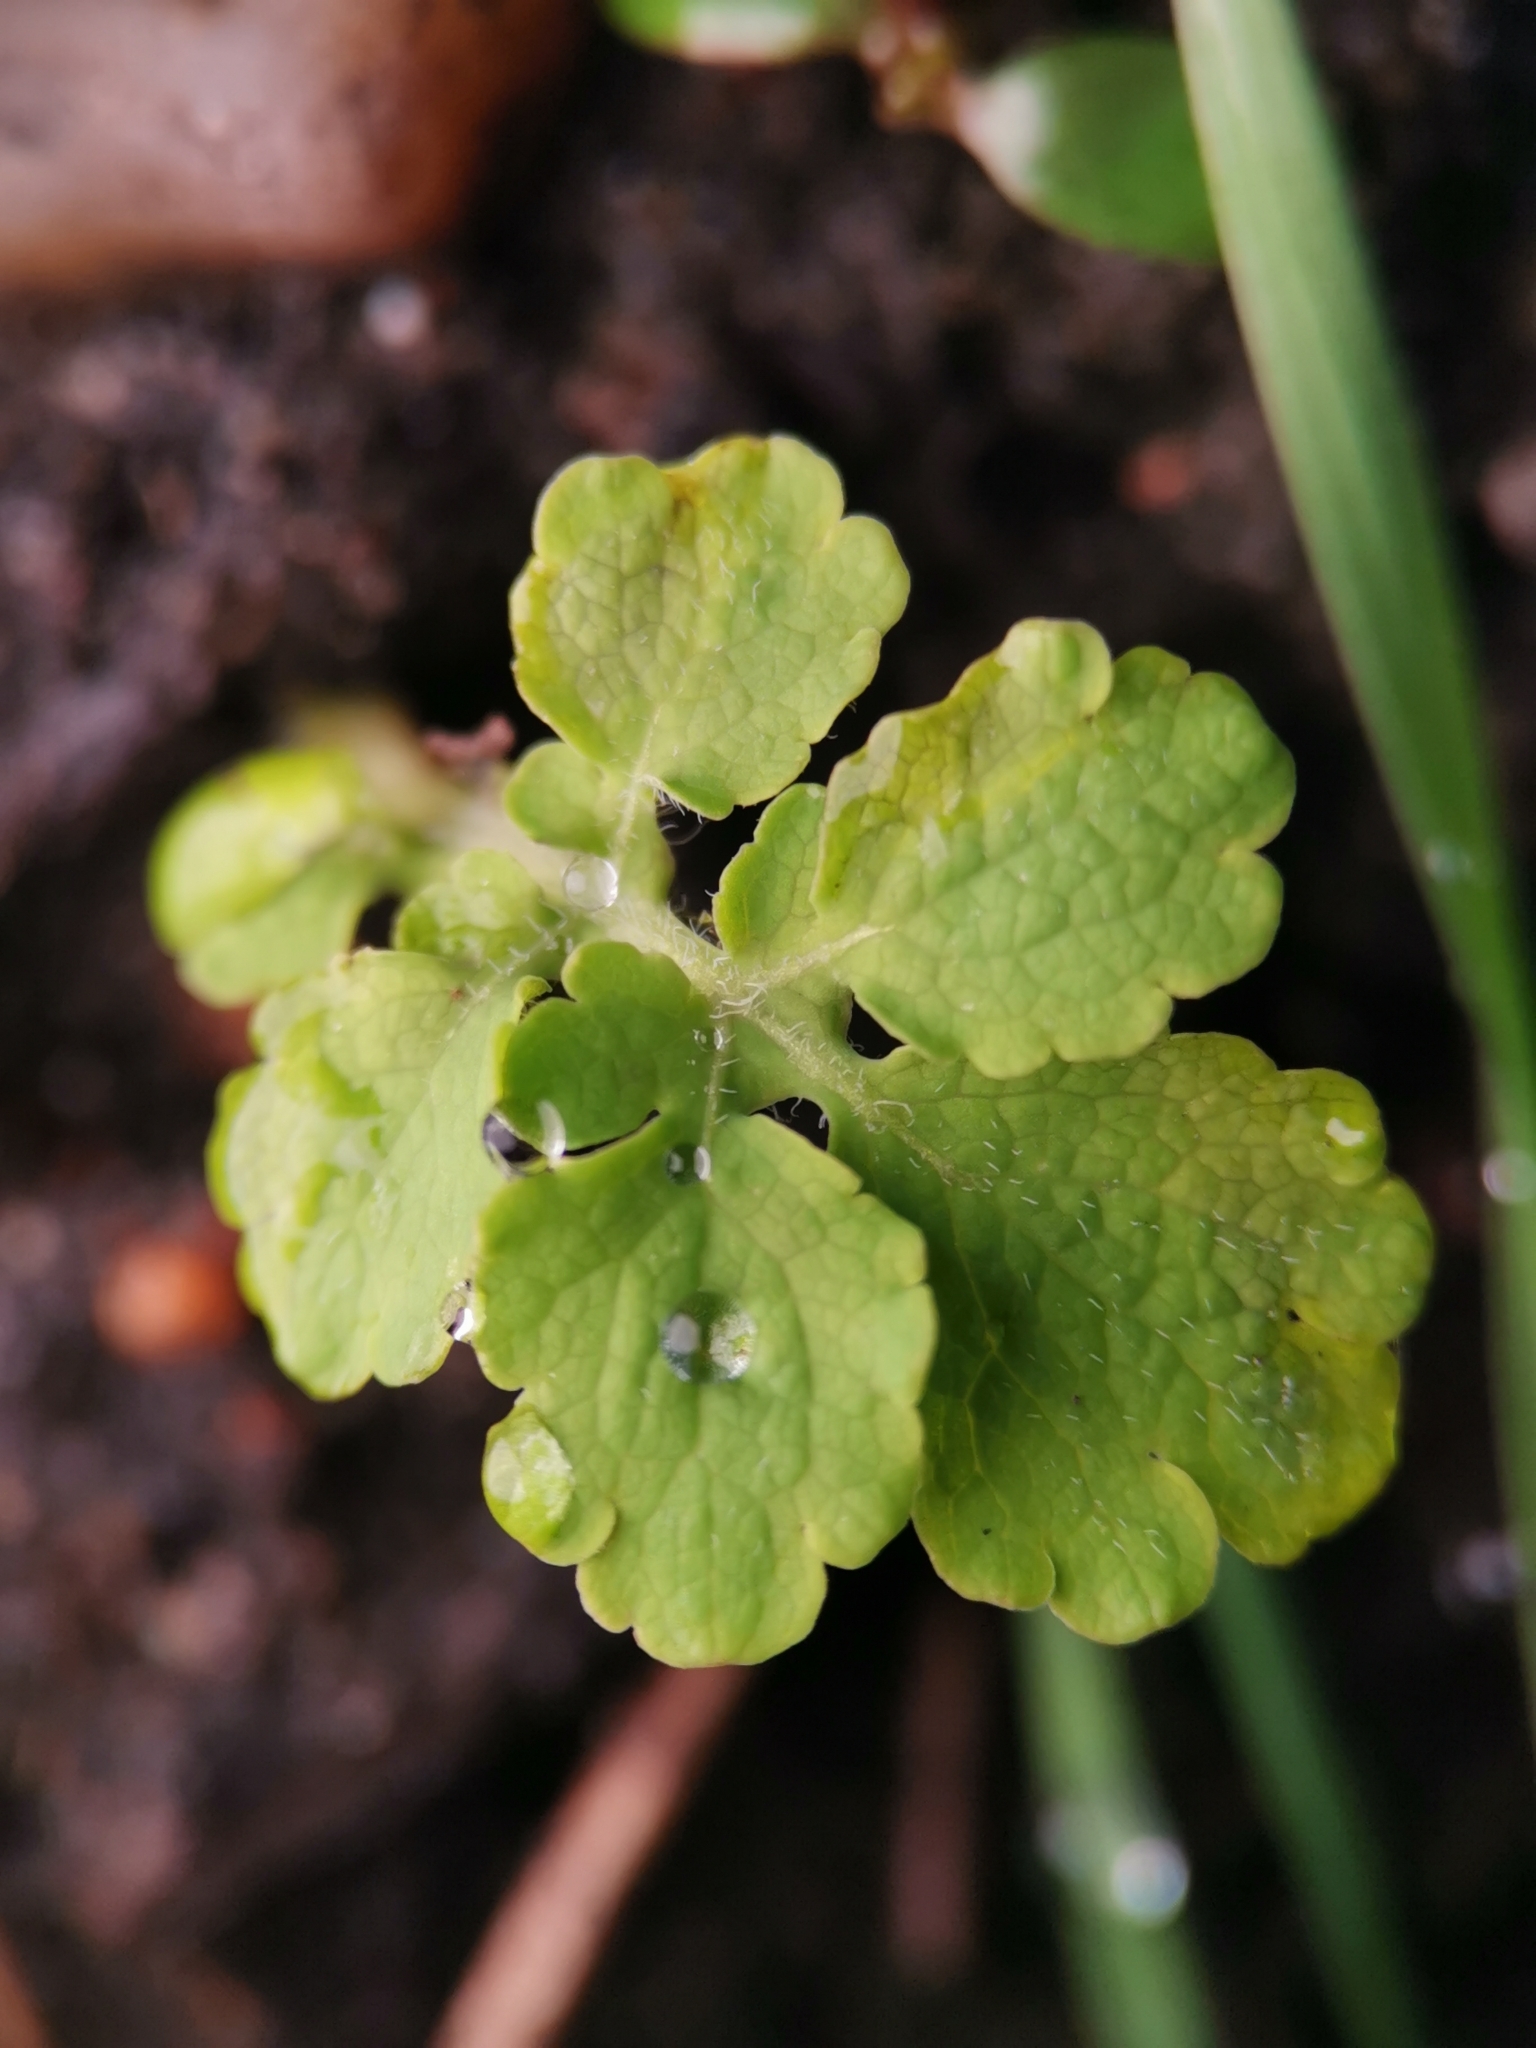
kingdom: Plantae
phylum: Tracheophyta
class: Magnoliopsida
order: Ranunculales
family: Papaveraceae
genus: Chelidonium
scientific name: Chelidonium majus
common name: Greater celandine
